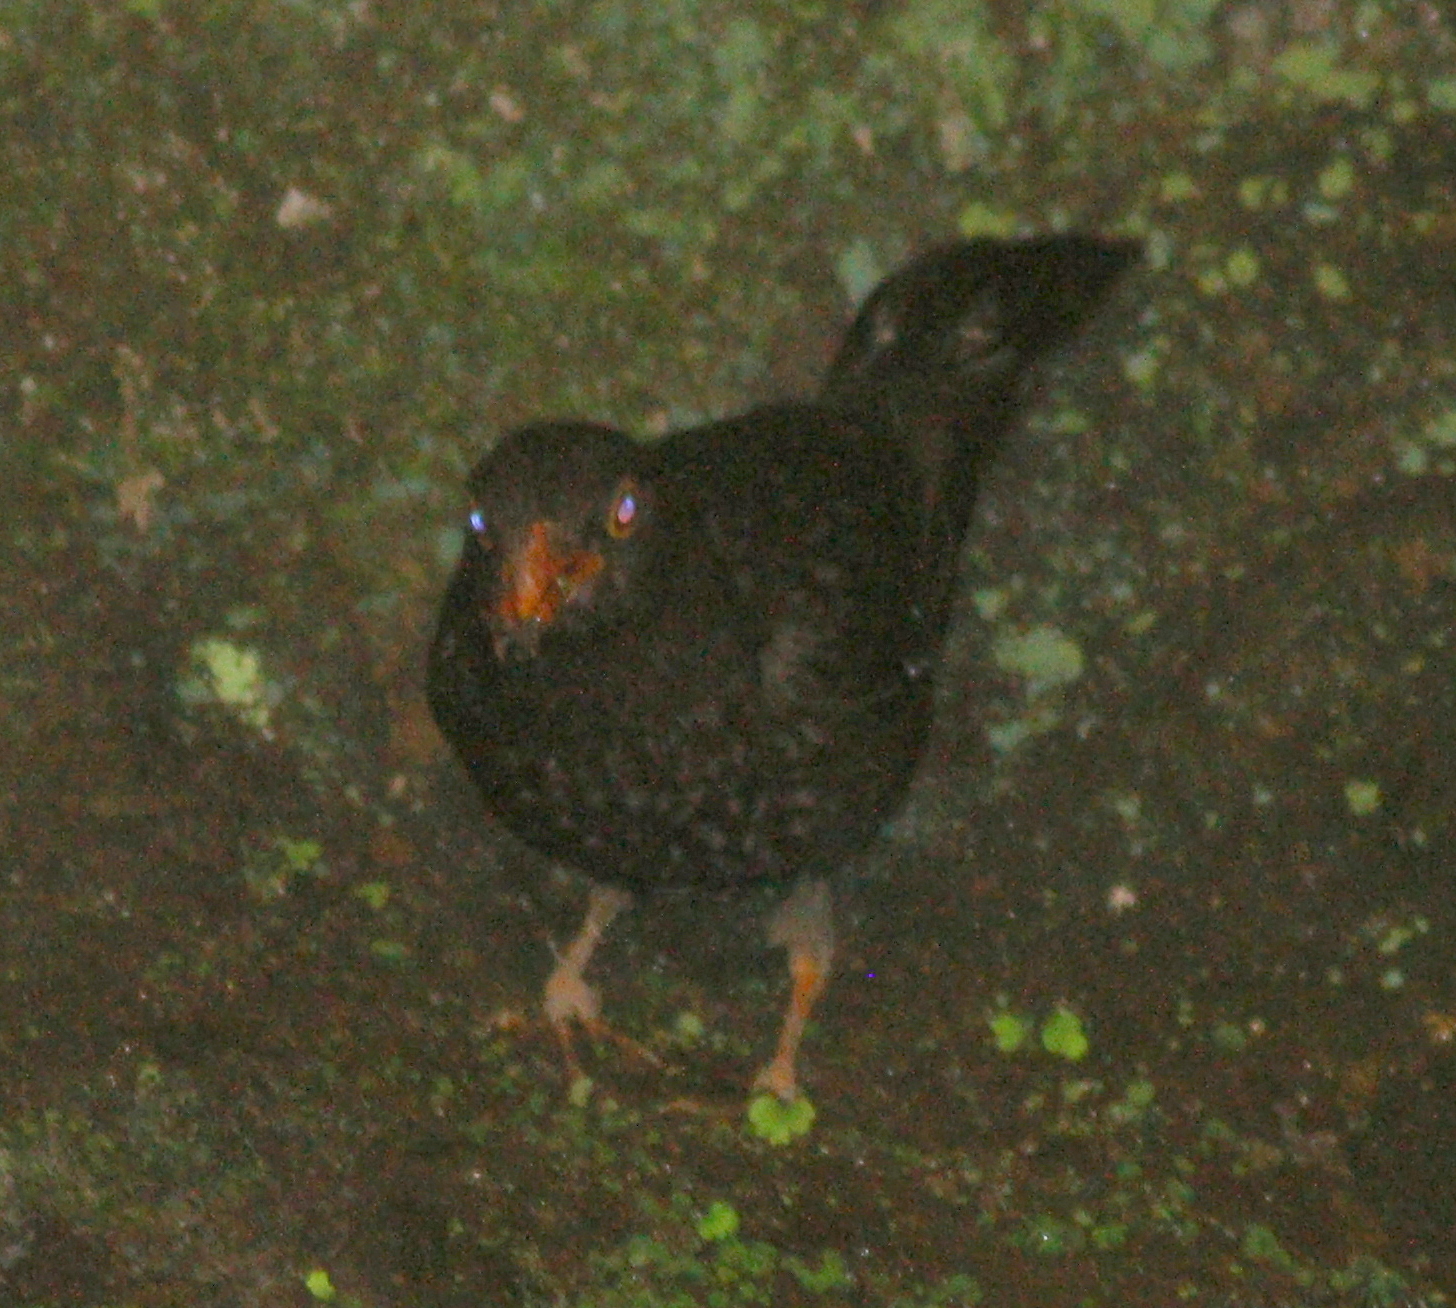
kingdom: Animalia
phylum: Chordata
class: Aves
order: Passeriformes
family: Turdidae
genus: Turdus
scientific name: Turdus chiguanco
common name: Chiguanco thrush
